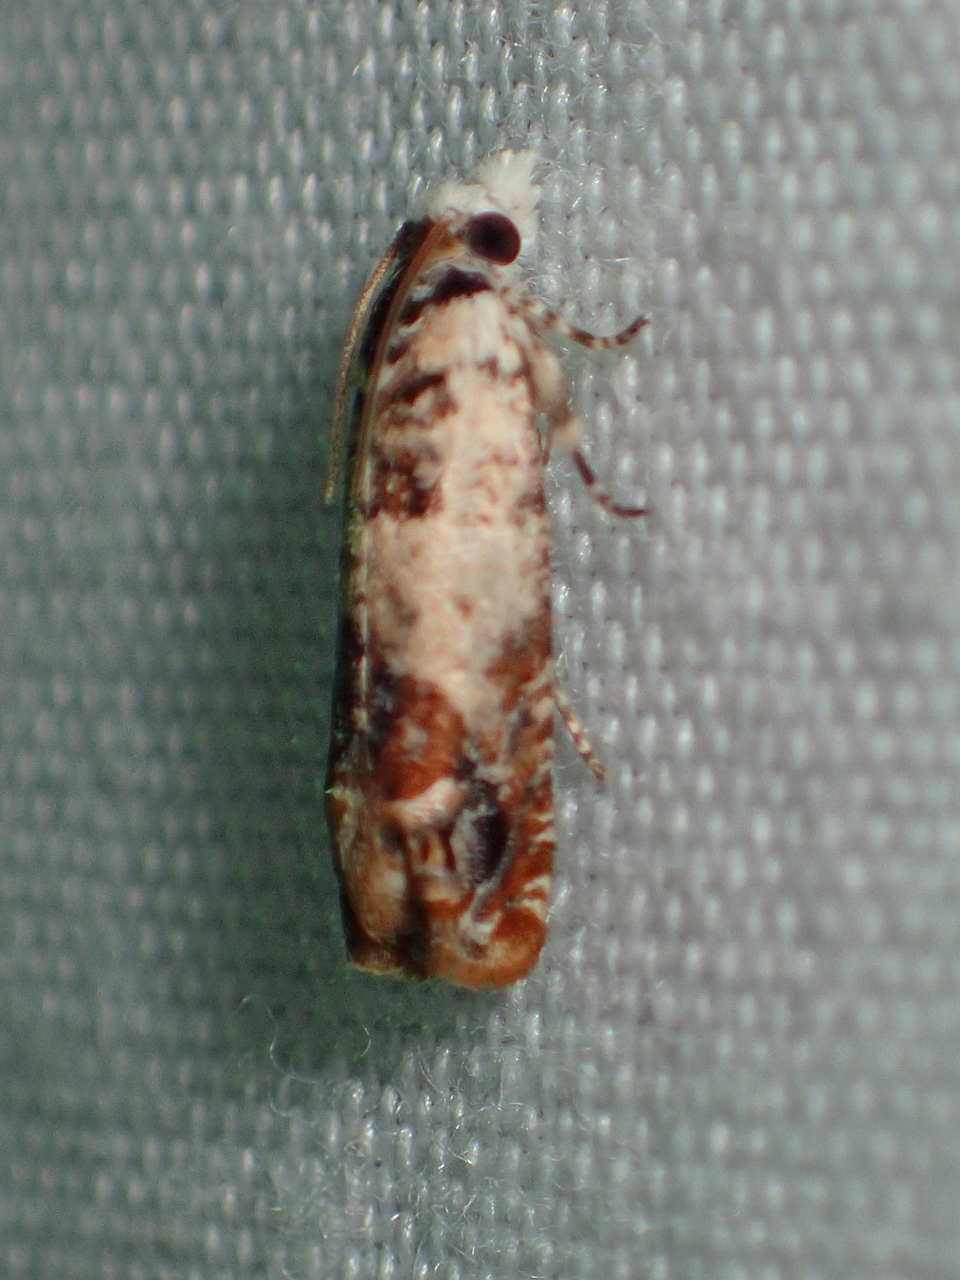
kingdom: Animalia
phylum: Arthropoda
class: Insecta
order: Lepidoptera
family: Tortricidae
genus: Eucosma
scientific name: Eucosma ornatula
